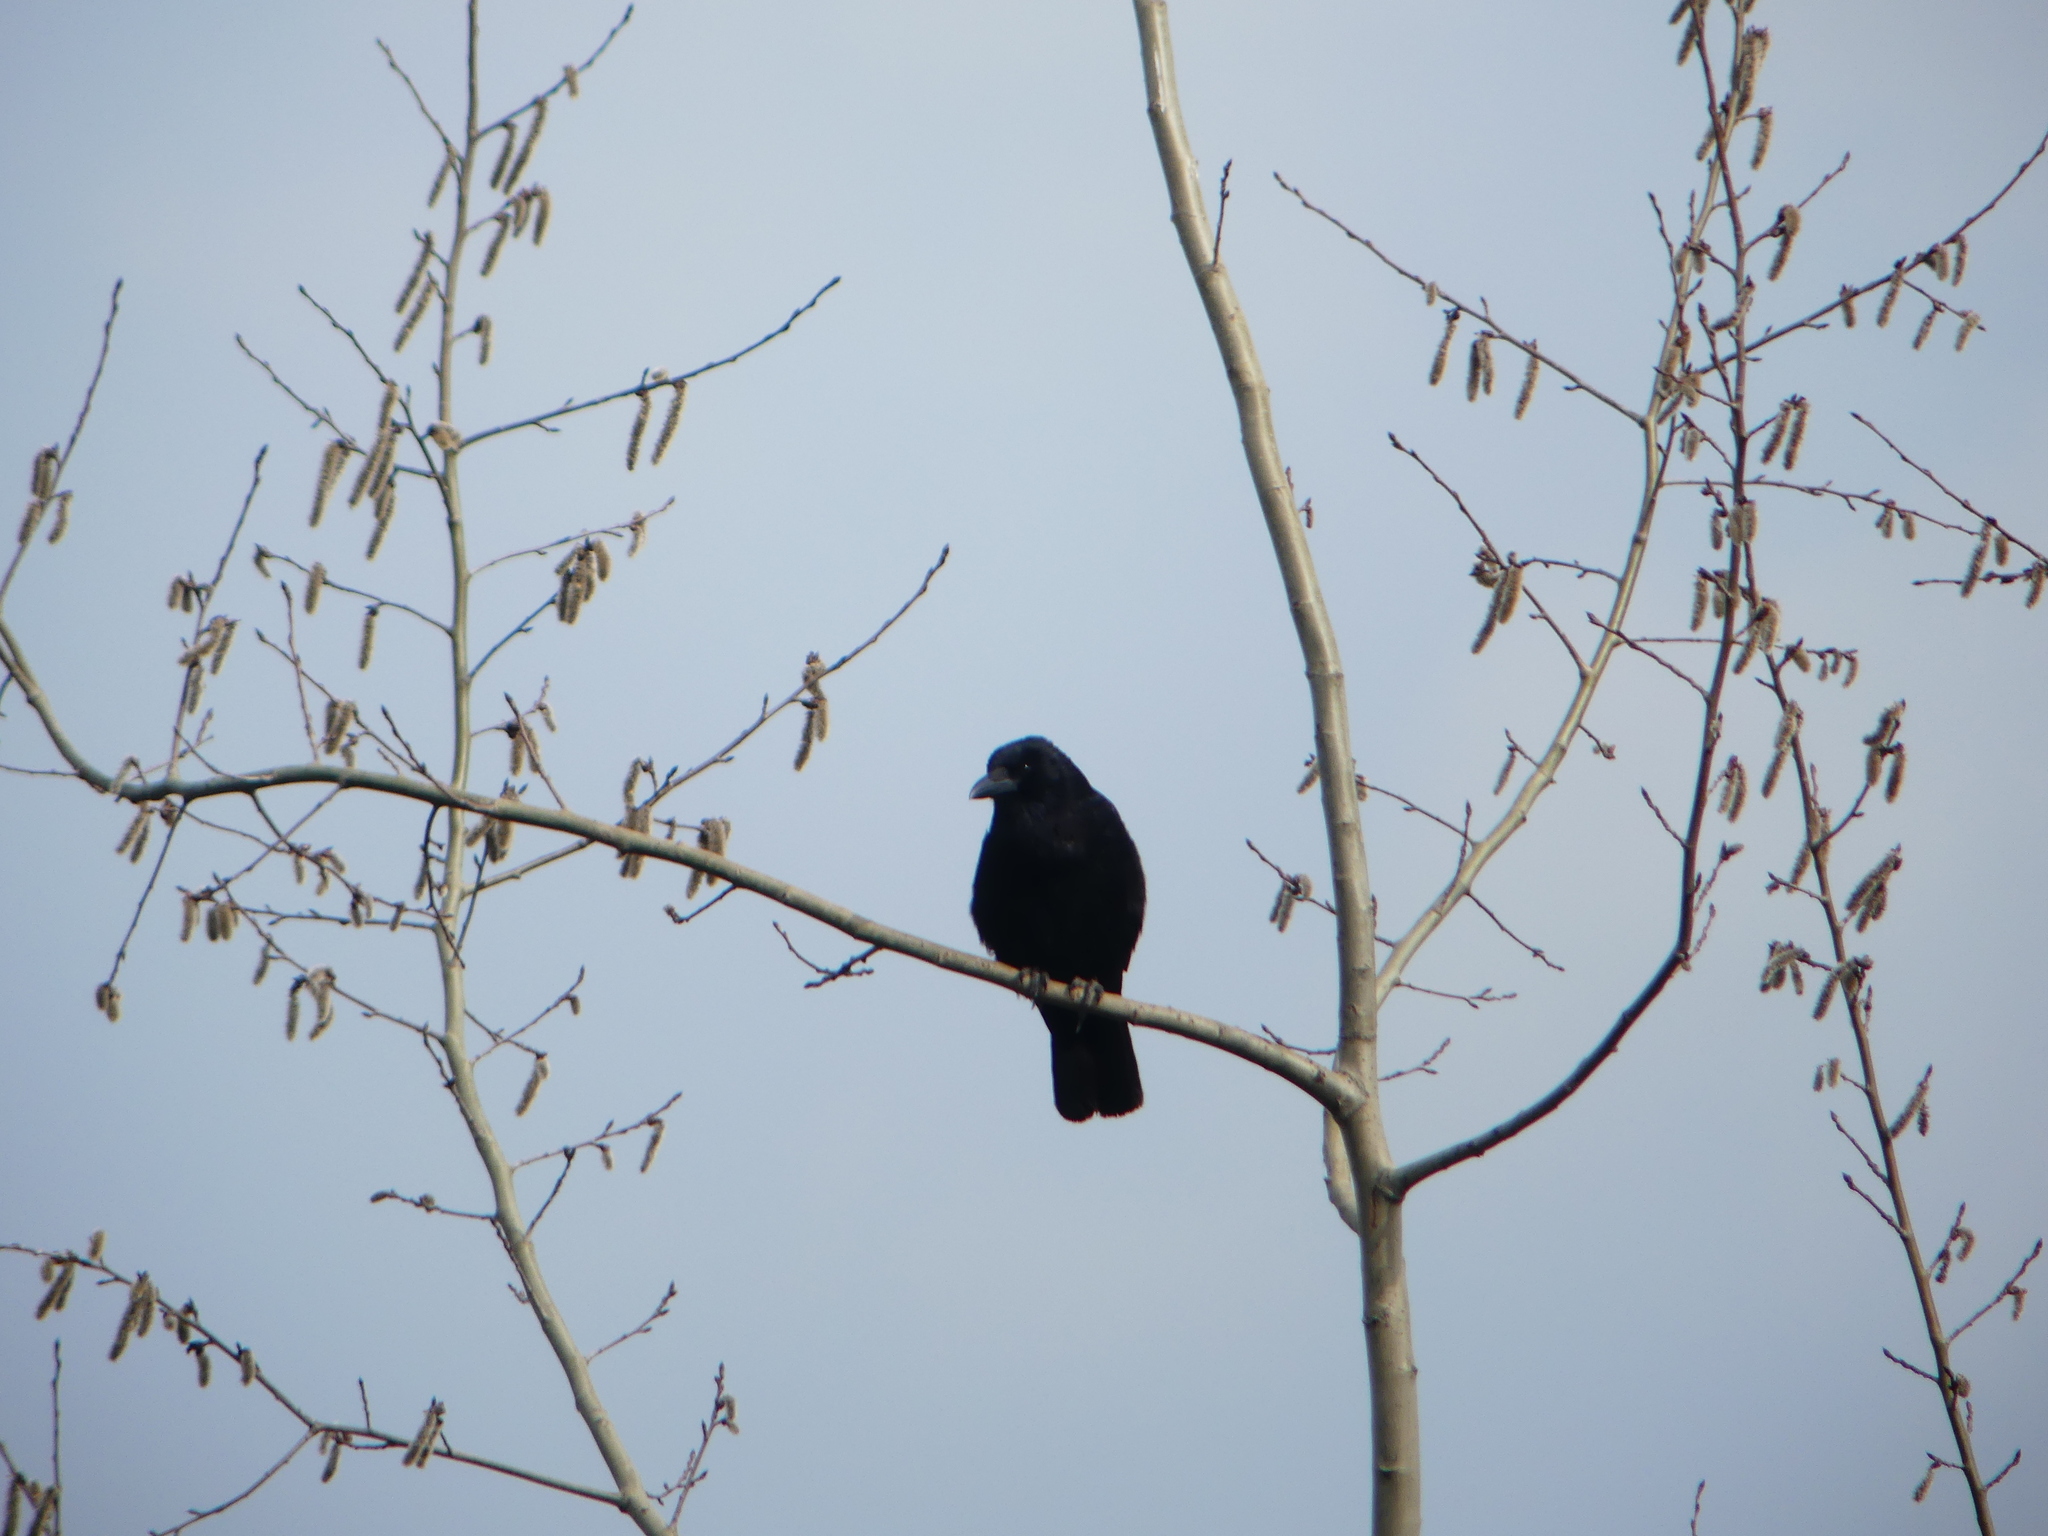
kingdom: Animalia
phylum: Chordata
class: Aves
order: Passeriformes
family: Corvidae
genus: Corvus
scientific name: Corvus corone
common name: Carrion crow
